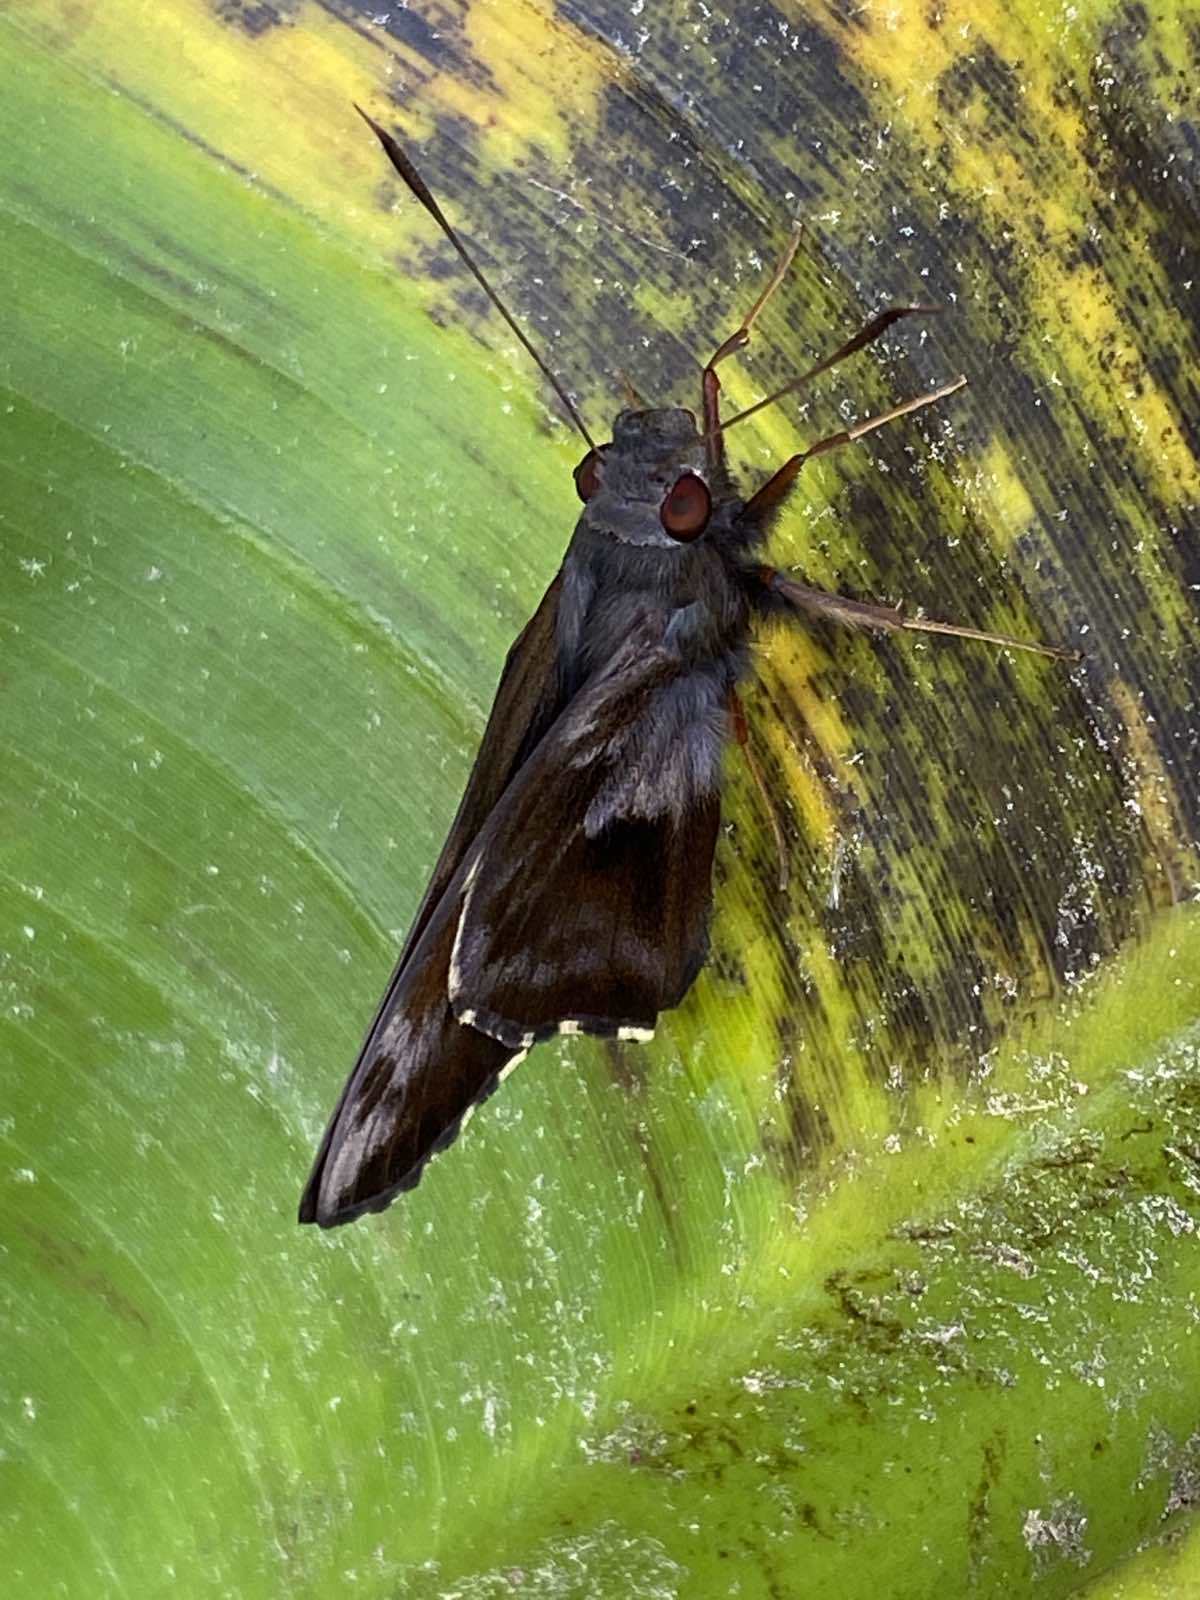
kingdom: Animalia
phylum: Arthropoda
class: Insecta
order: Lepidoptera
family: Hesperiidae
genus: Perichares
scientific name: Perichares philetes
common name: Green-backed ruby-eye
